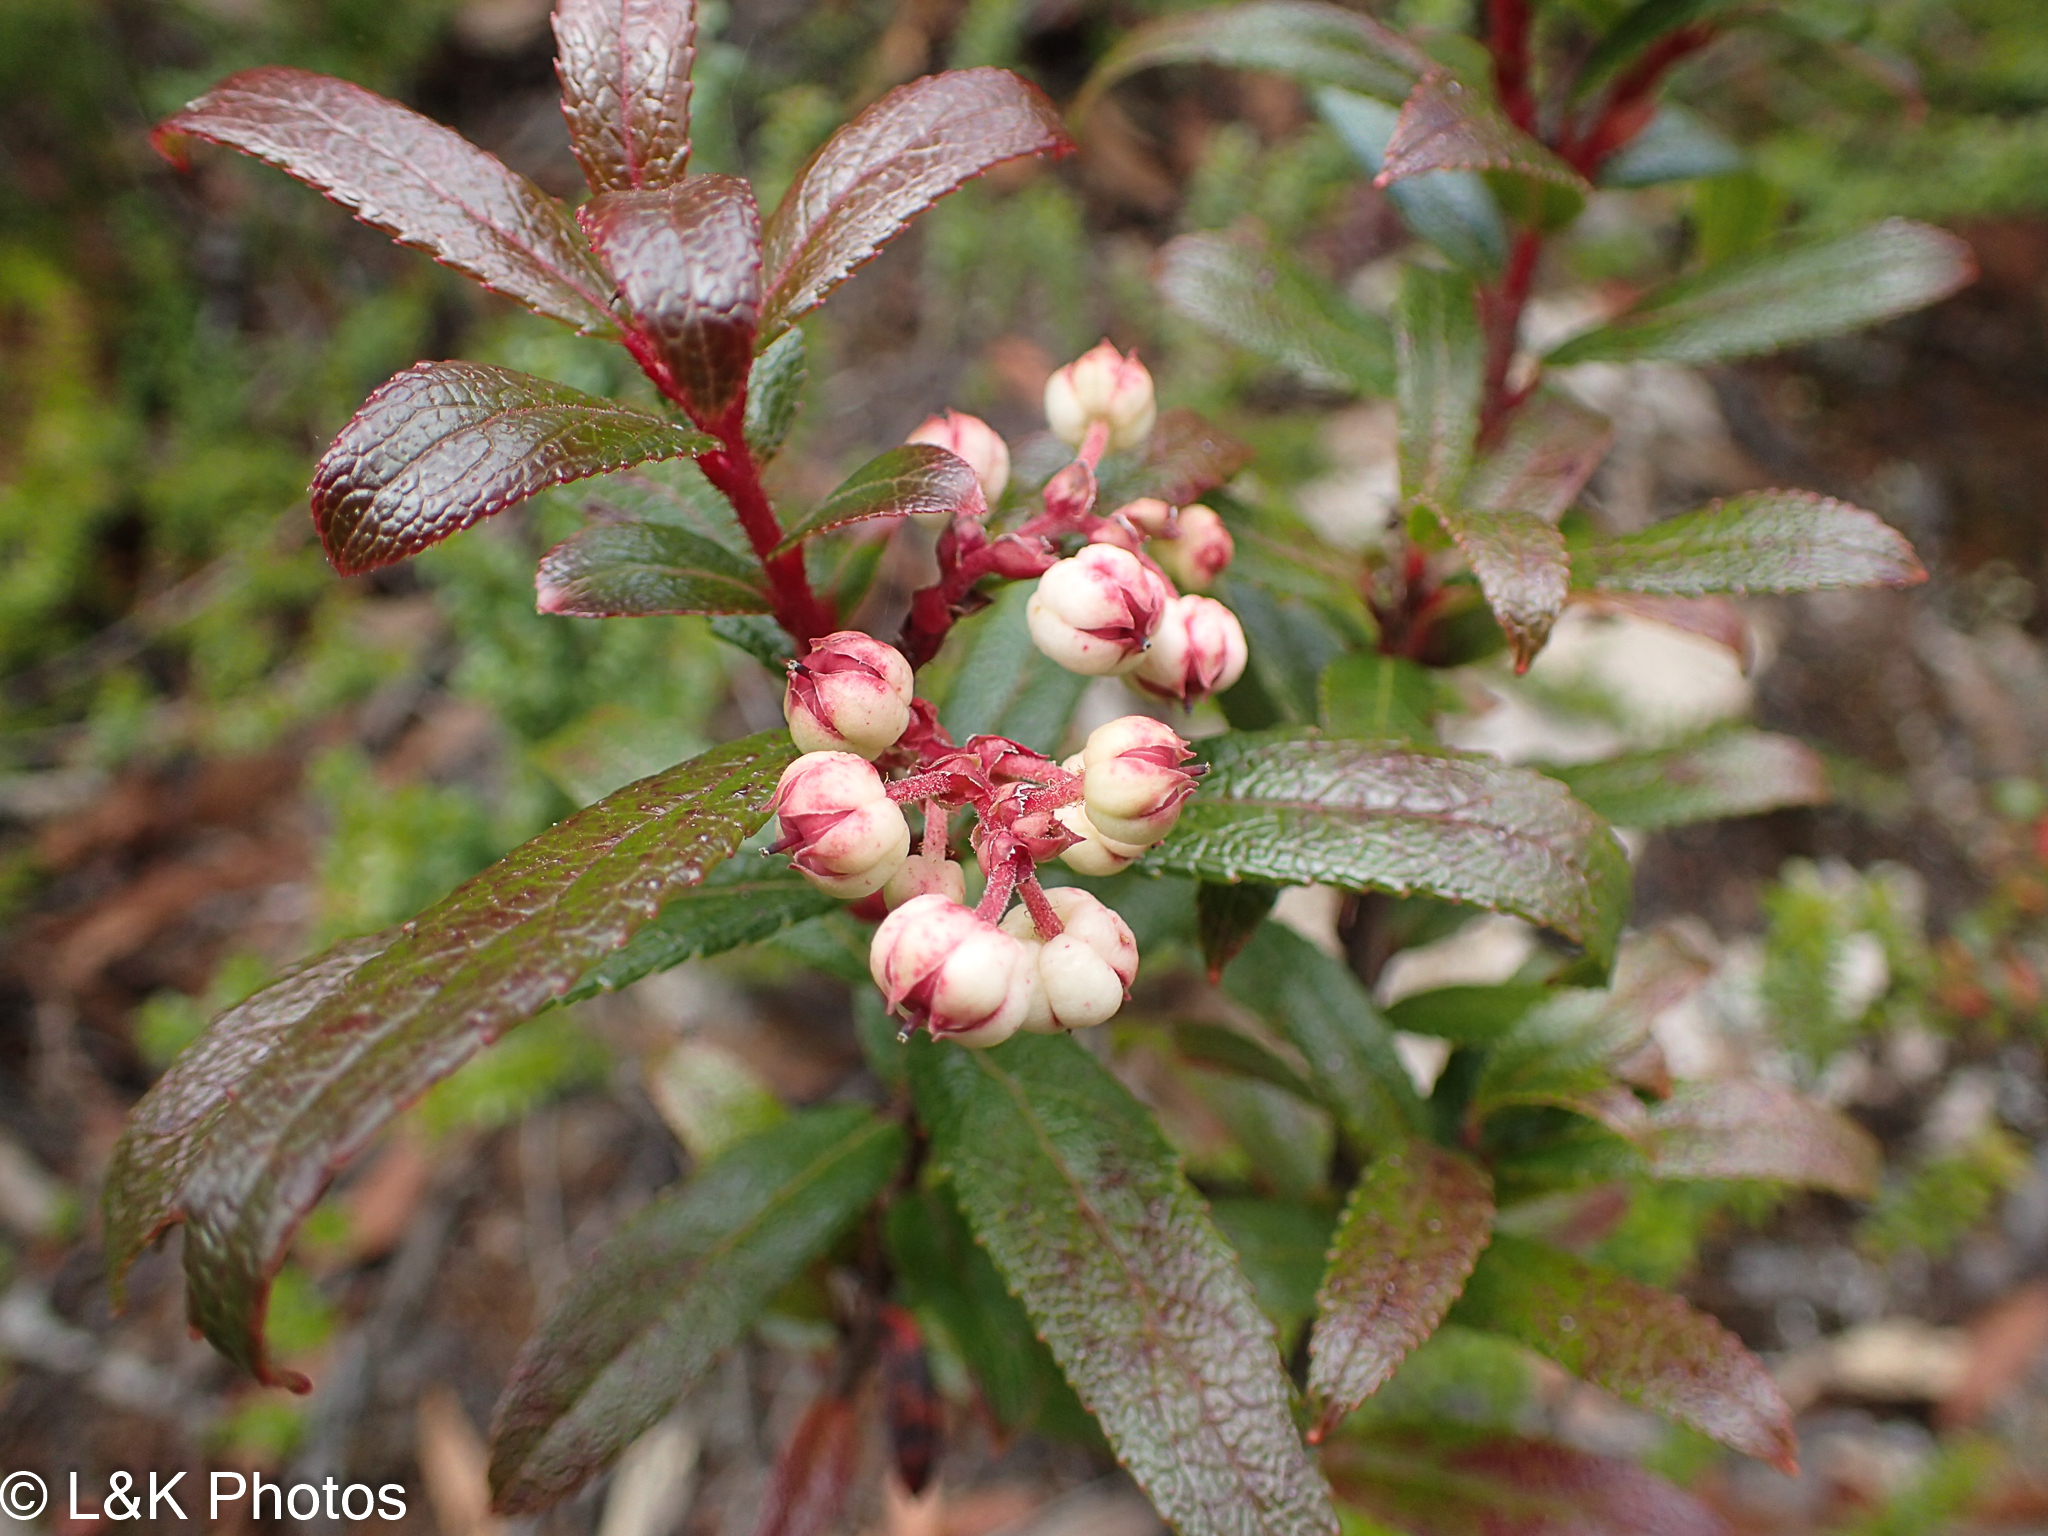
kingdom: Plantae
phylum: Tracheophyta
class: Magnoliopsida
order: Ericales
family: Ericaceae
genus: Gaultheria
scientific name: Gaultheria hispida
